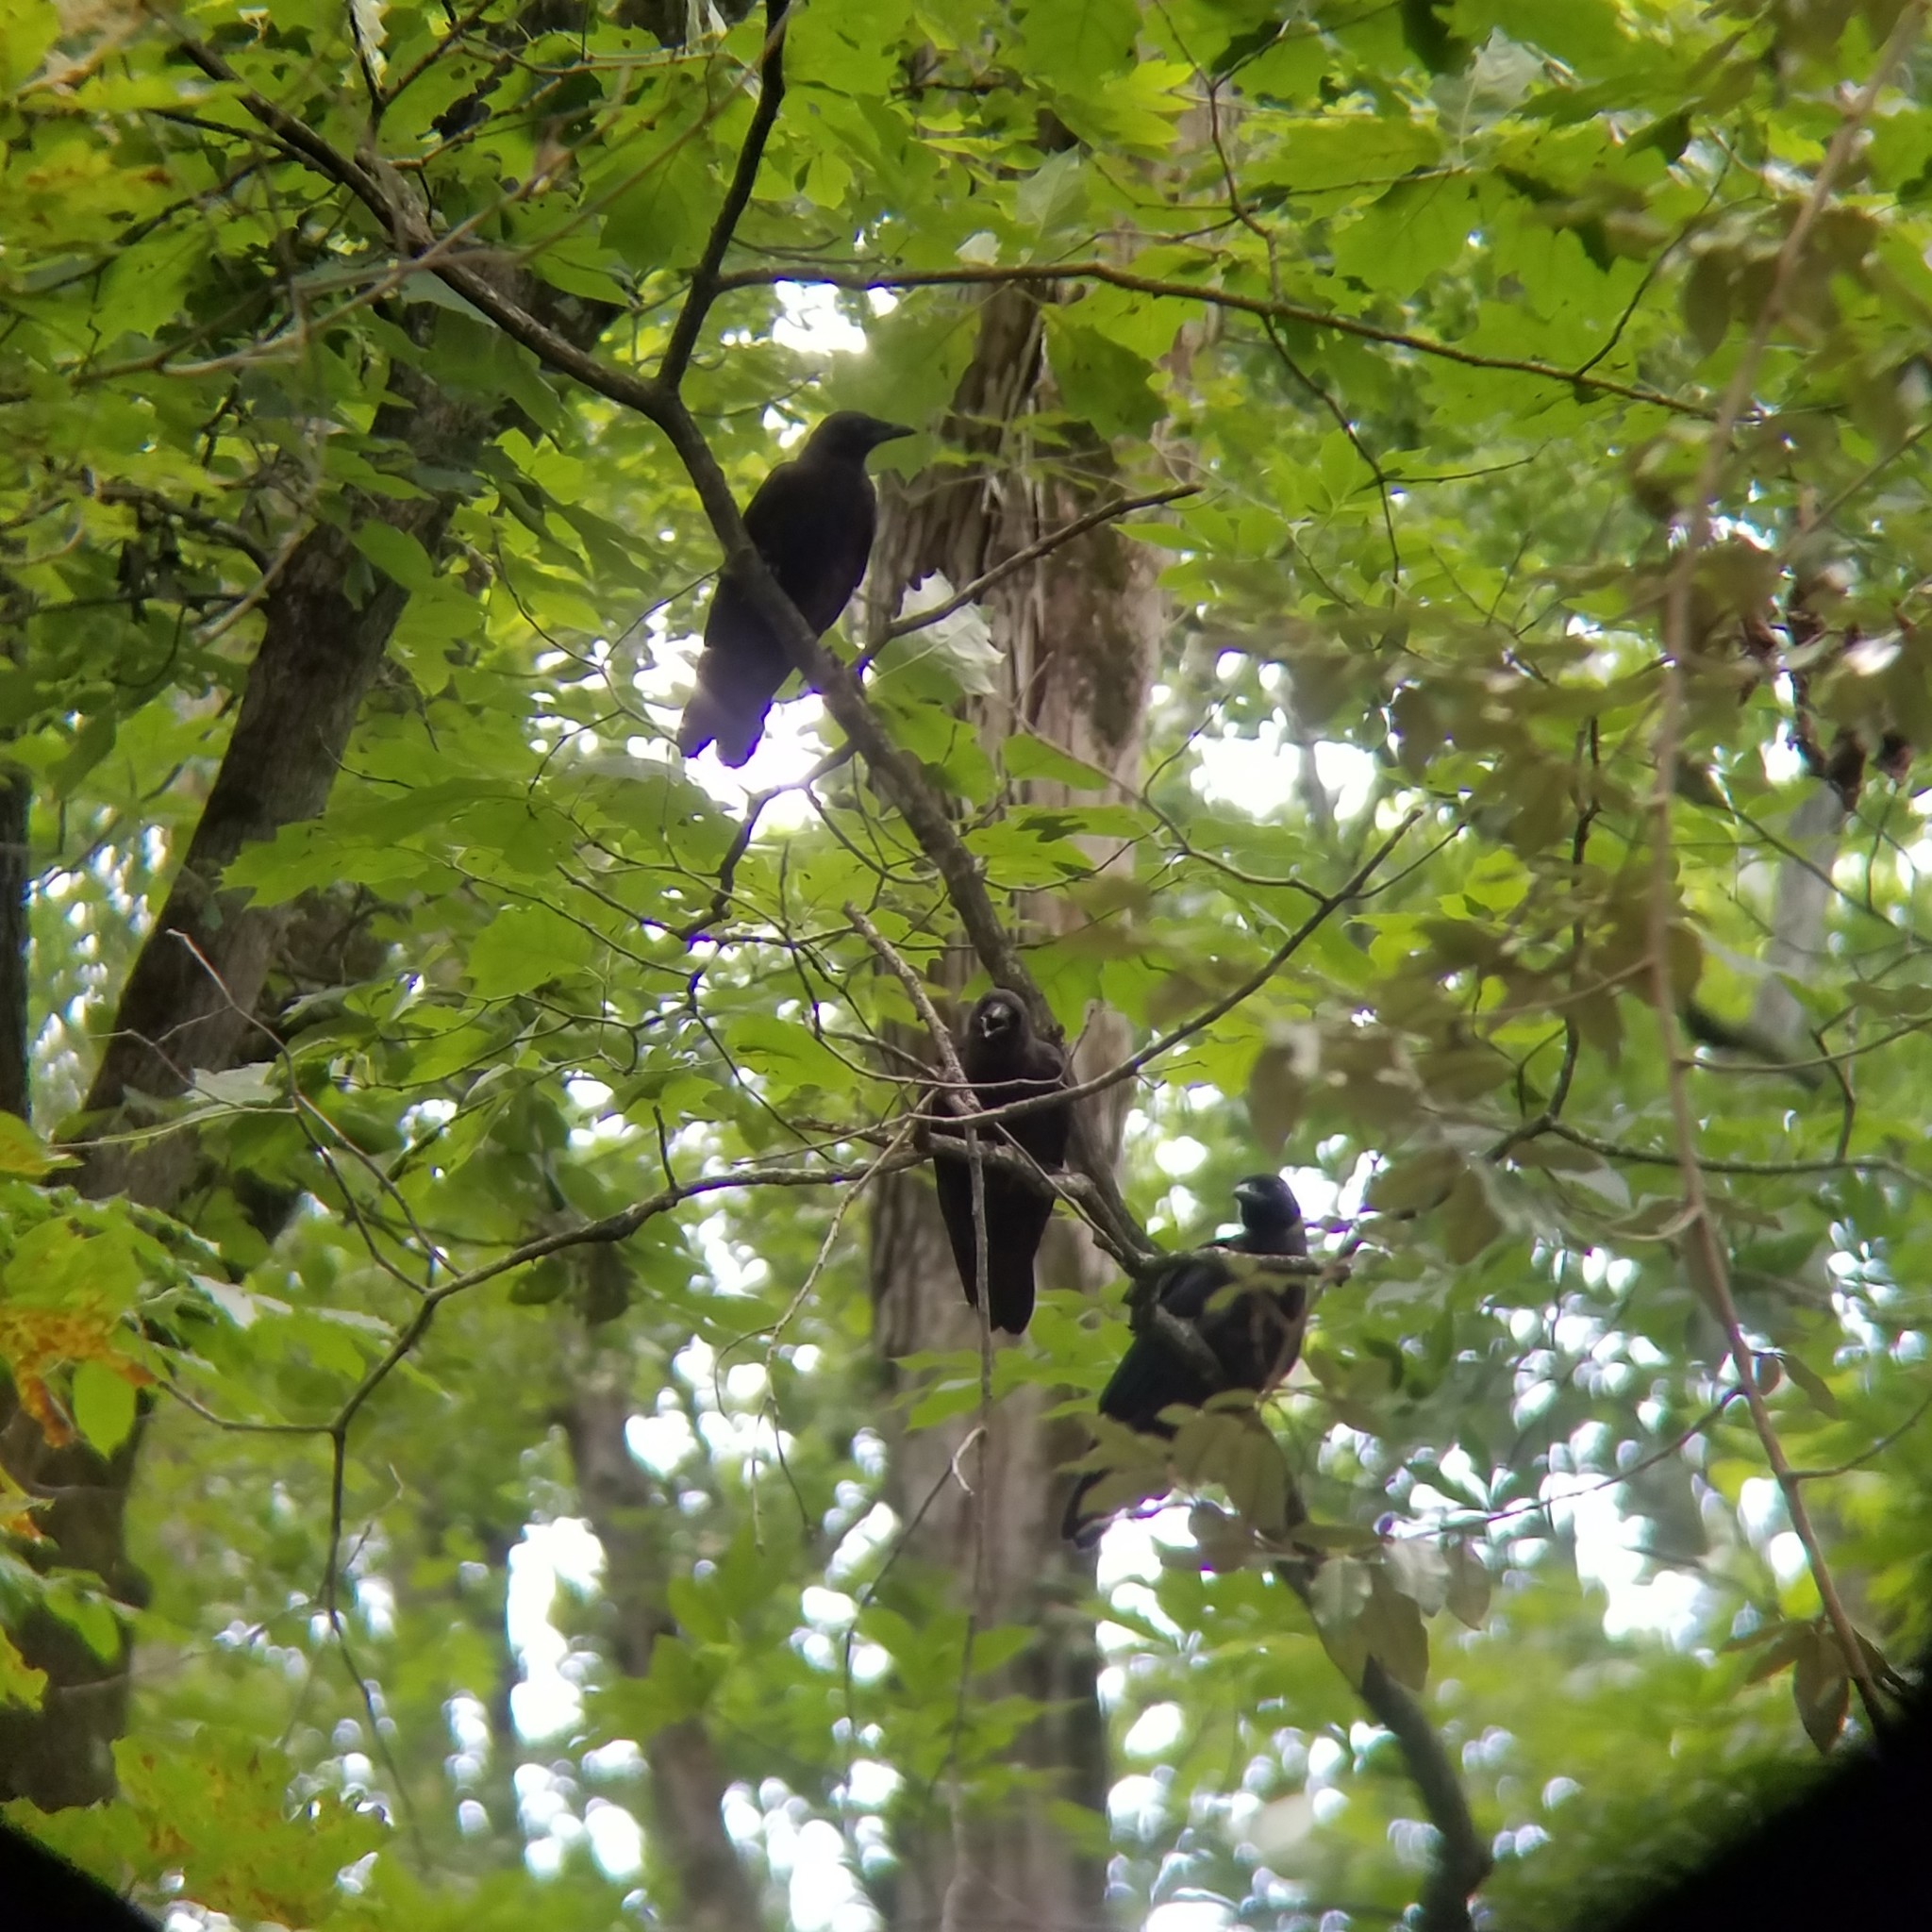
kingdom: Animalia
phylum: Chordata
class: Aves
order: Passeriformes
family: Corvidae
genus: Corvus
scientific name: Corvus brachyrhynchos
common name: American crow
